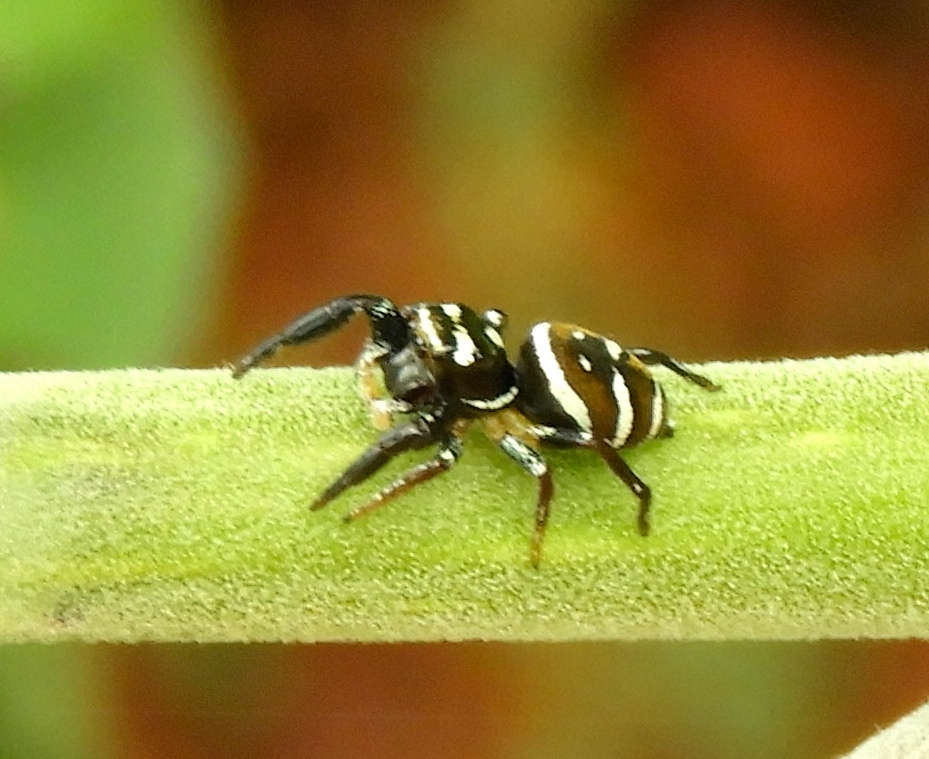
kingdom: Animalia
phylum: Arthropoda
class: Arachnida
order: Araneae
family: Salticidae
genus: Sassacus
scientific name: Sassacus
